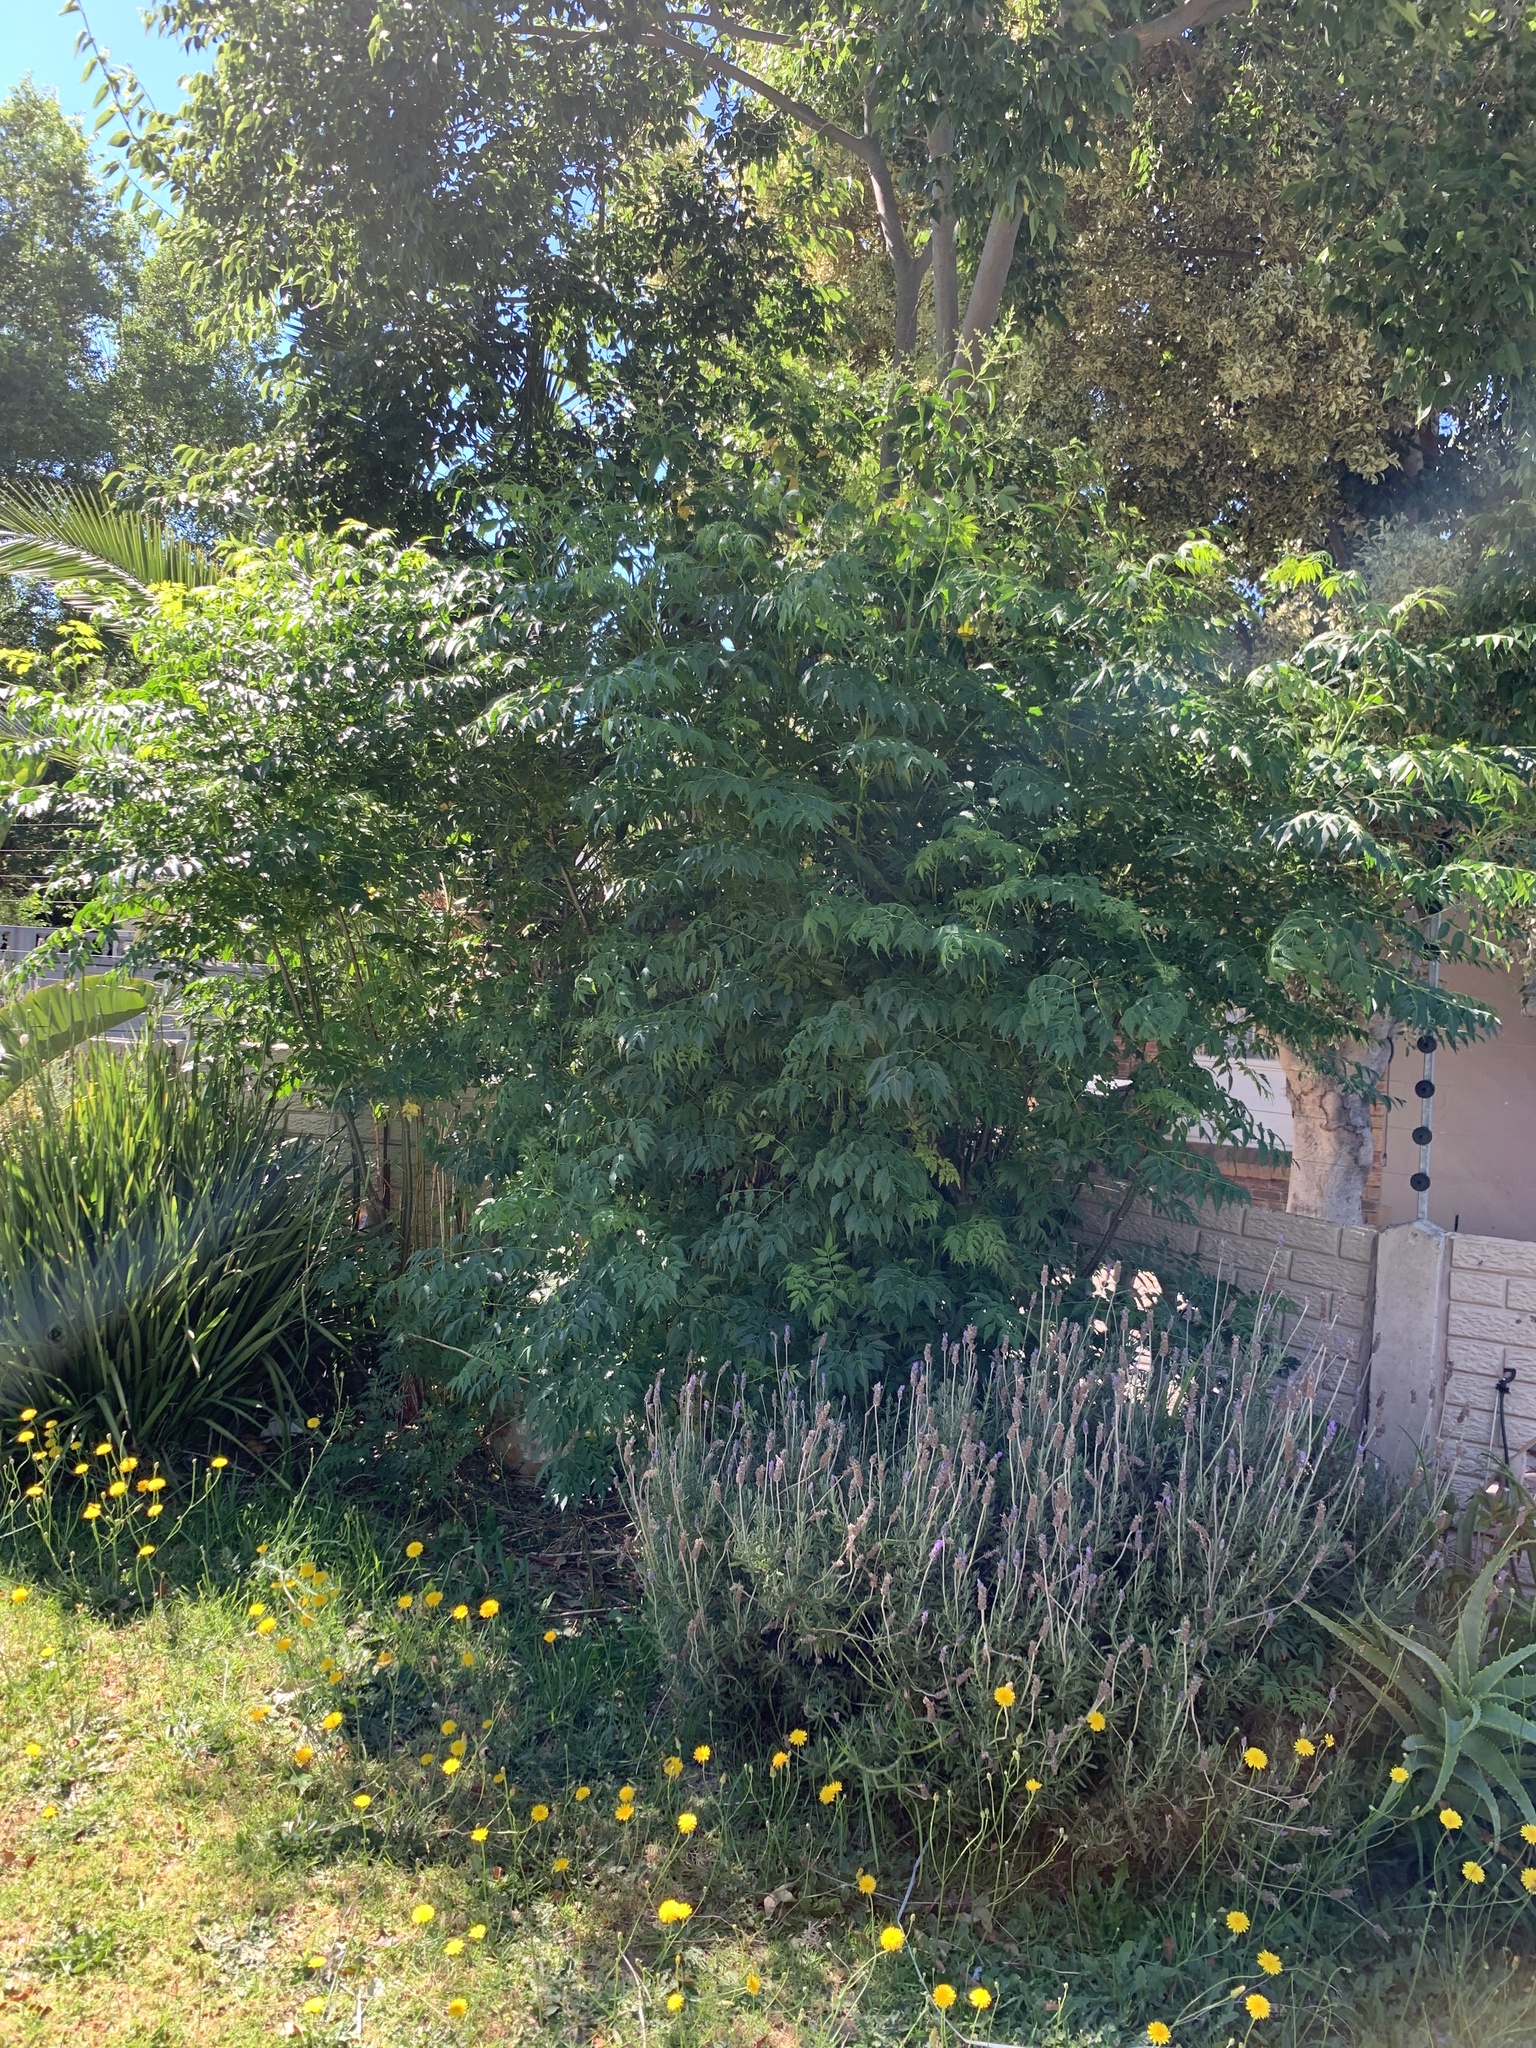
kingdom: Plantae
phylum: Tracheophyta
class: Magnoliopsida
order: Sapindales
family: Meliaceae
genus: Melia
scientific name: Melia azedarach
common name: Chinaberrytree
